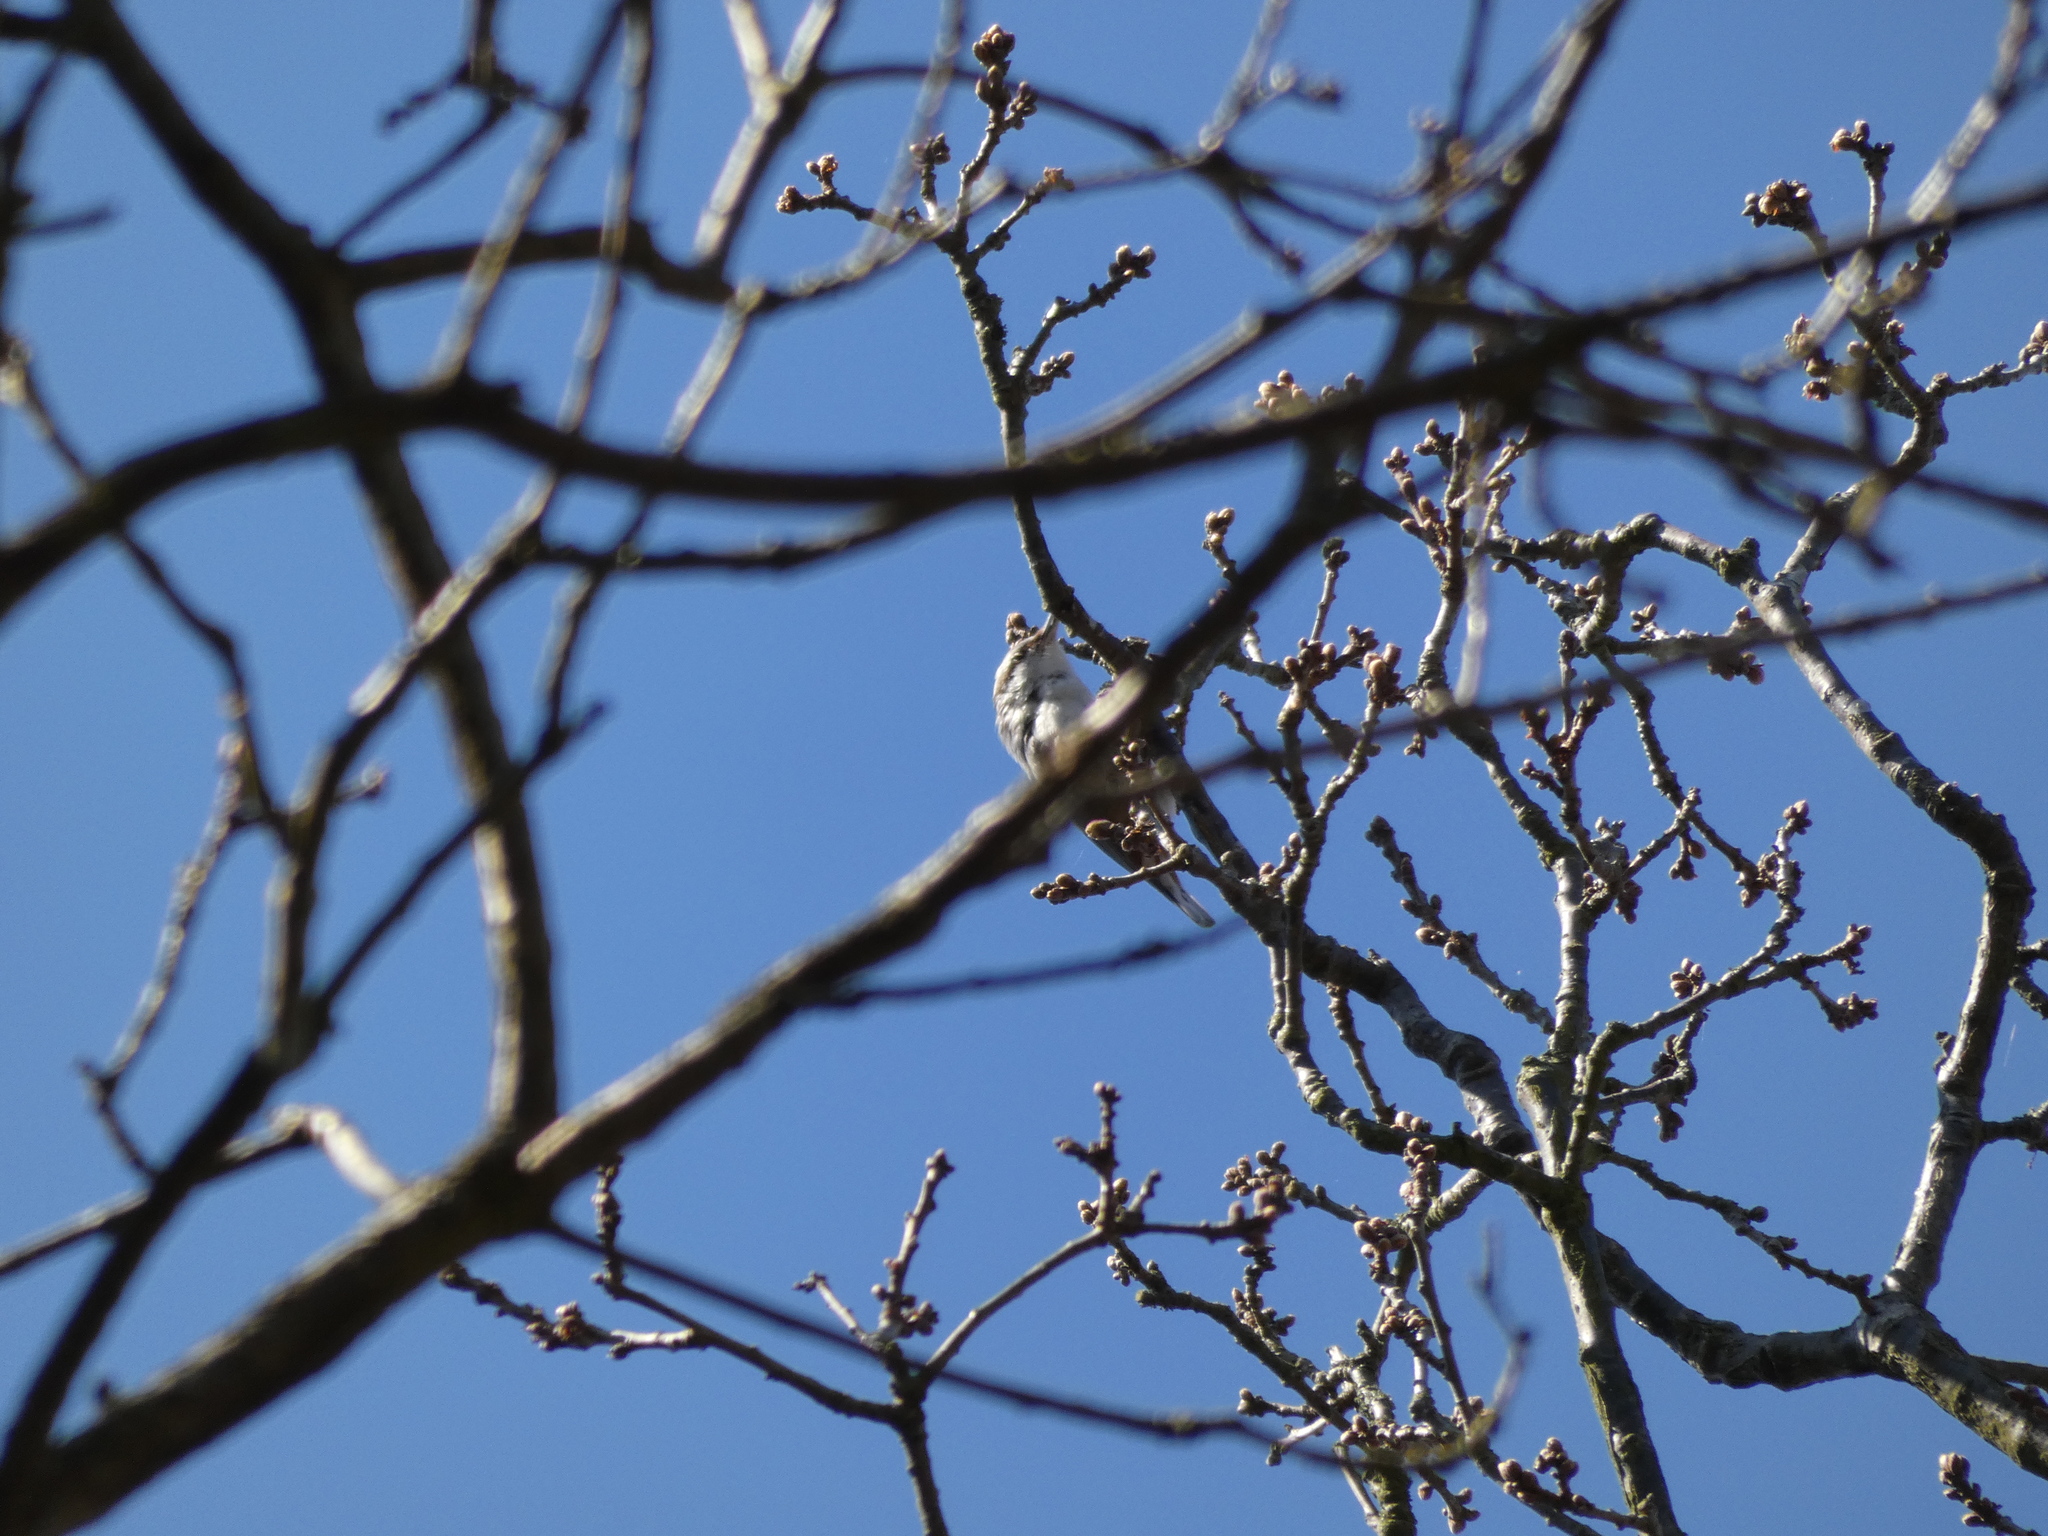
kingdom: Animalia
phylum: Chordata
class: Aves
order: Passeriformes
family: Sittidae
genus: Sitta
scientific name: Sitta europaea
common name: Eurasian nuthatch
